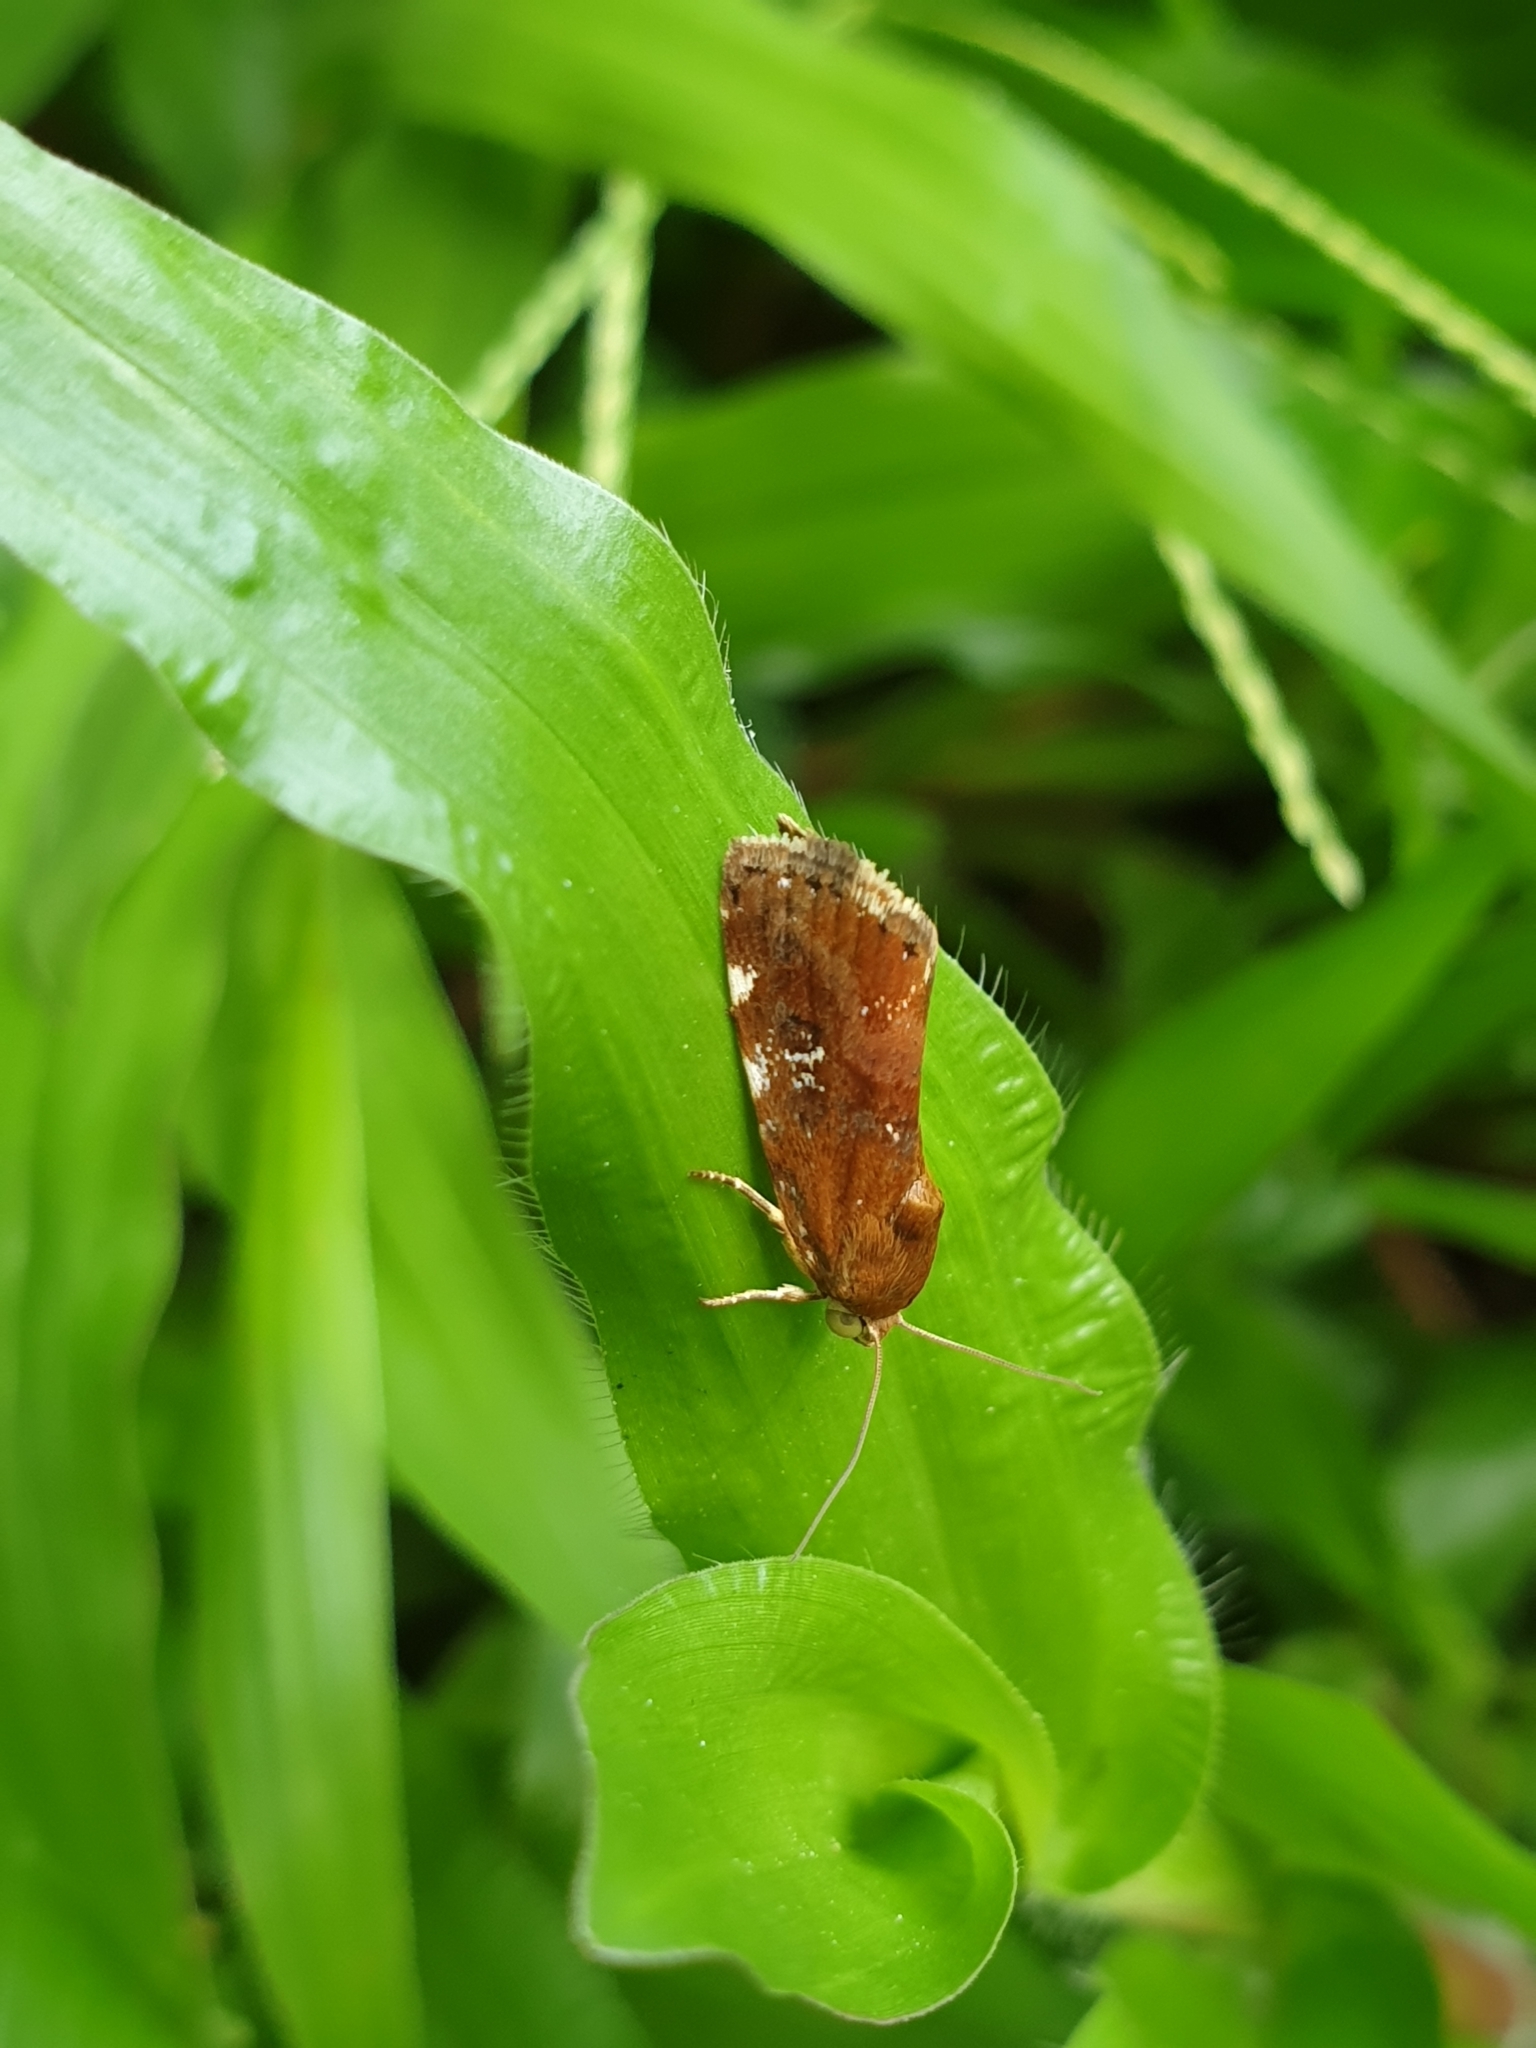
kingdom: Animalia
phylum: Arthropoda
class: Insecta
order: Lepidoptera
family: Noctuidae
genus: Acontia
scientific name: Acontia sexpunctata
